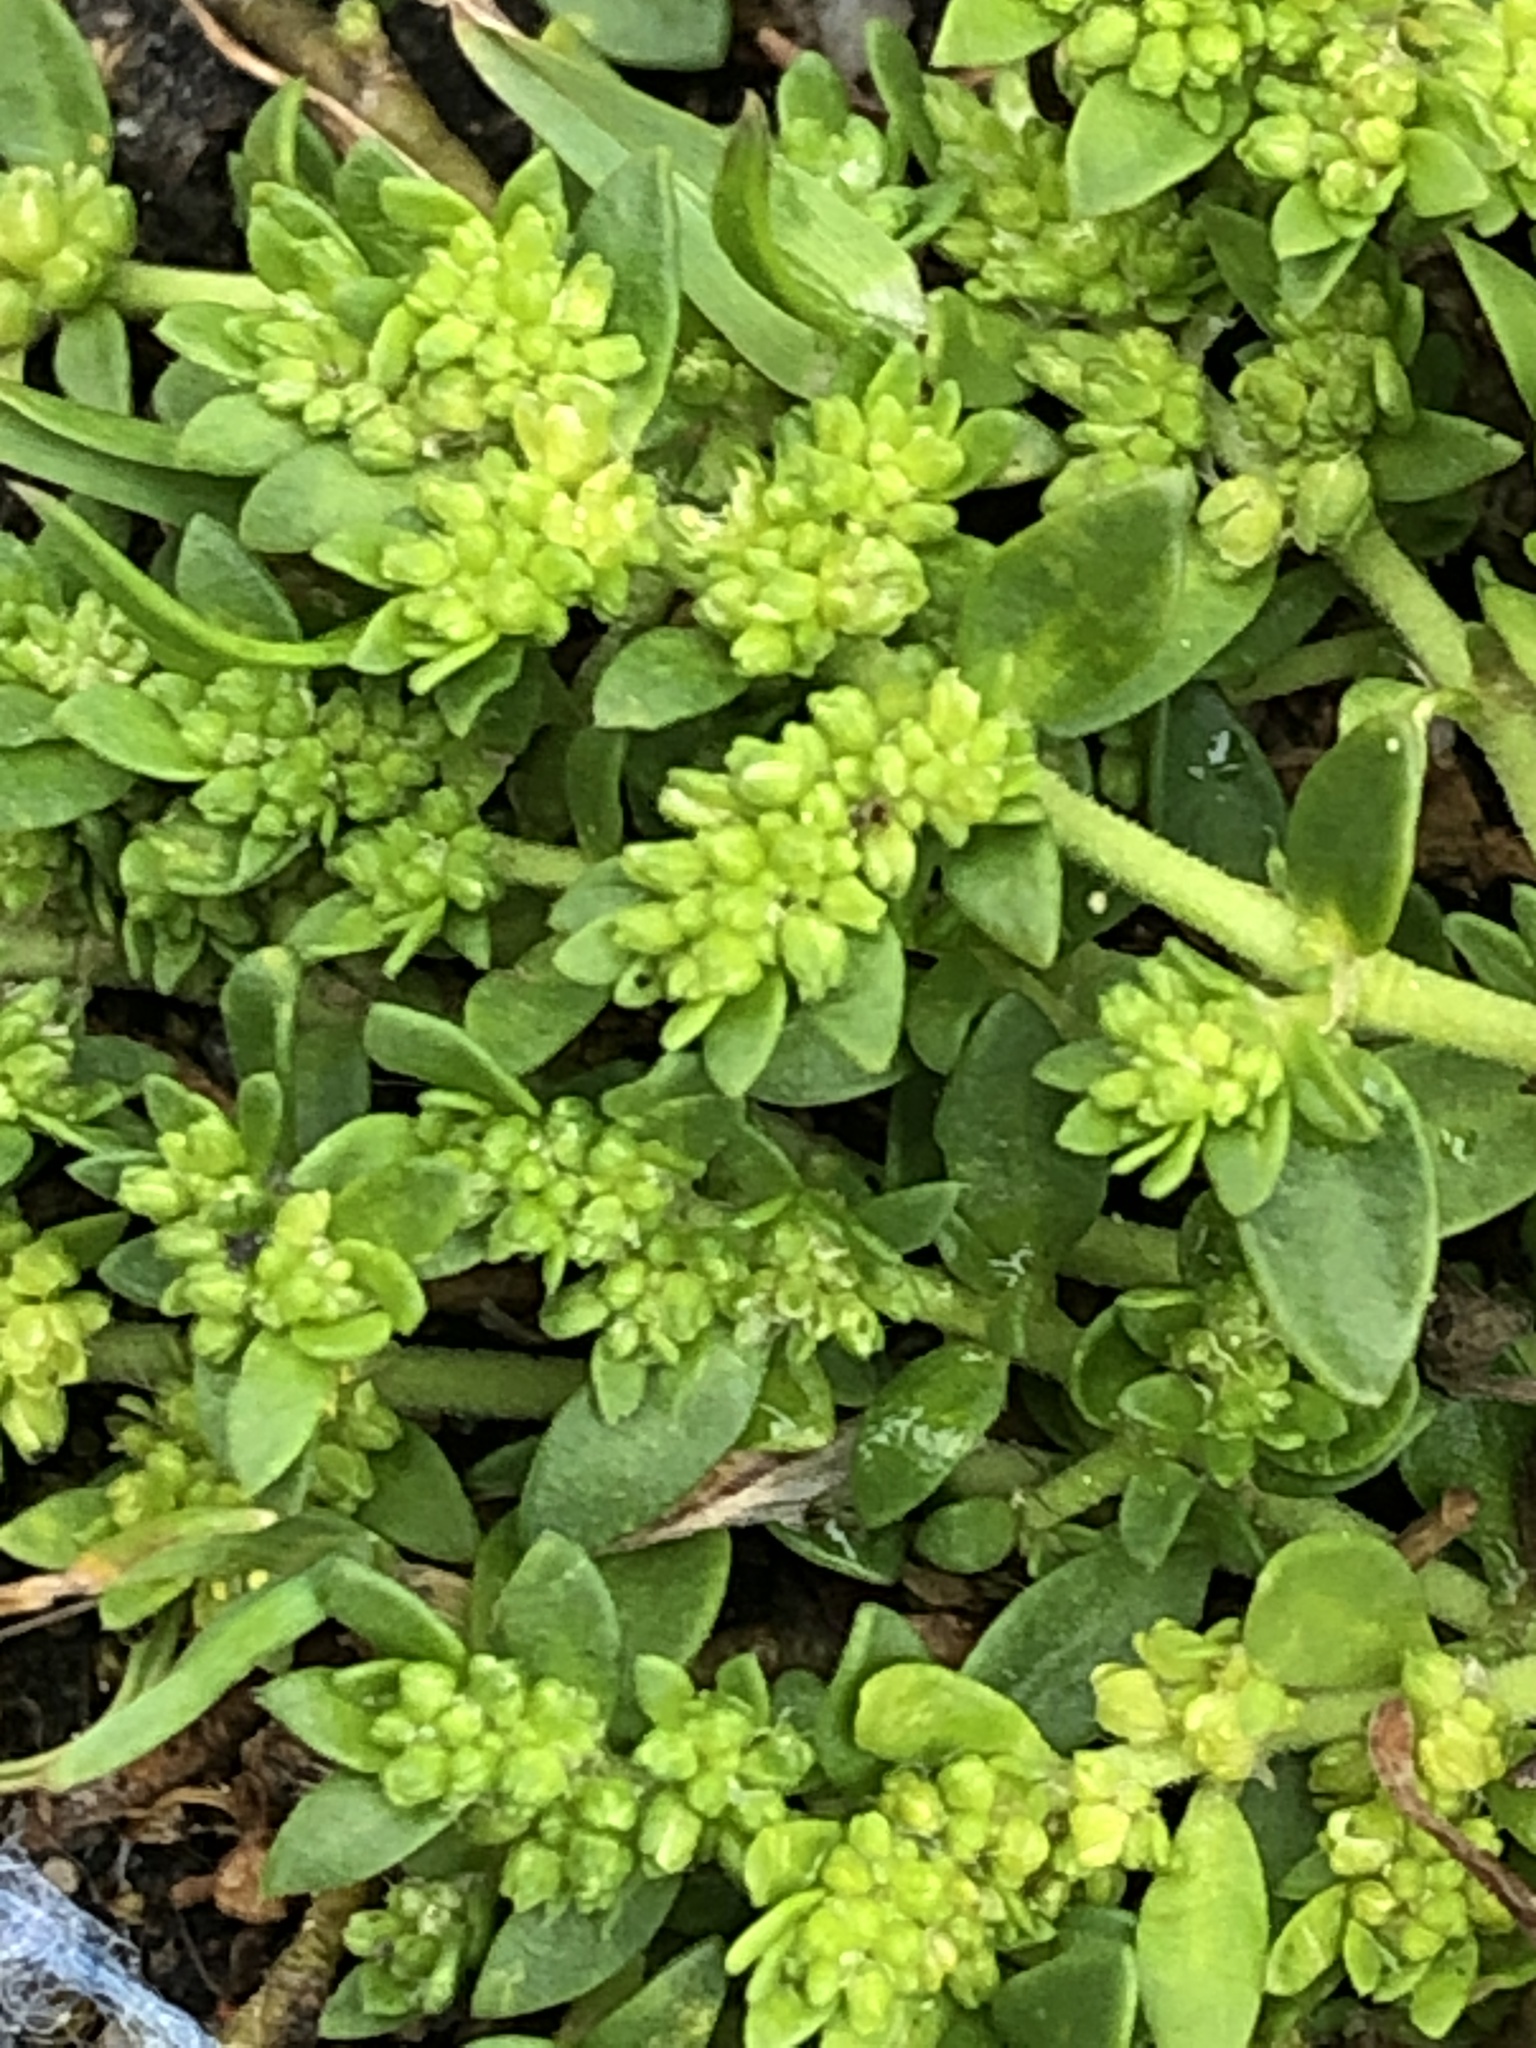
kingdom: Plantae
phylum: Tracheophyta
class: Magnoliopsida
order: Caryophyllales
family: Caryophyllaceae
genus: Herniaria
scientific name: Herniaria glabra
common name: Smooth rupturewort
